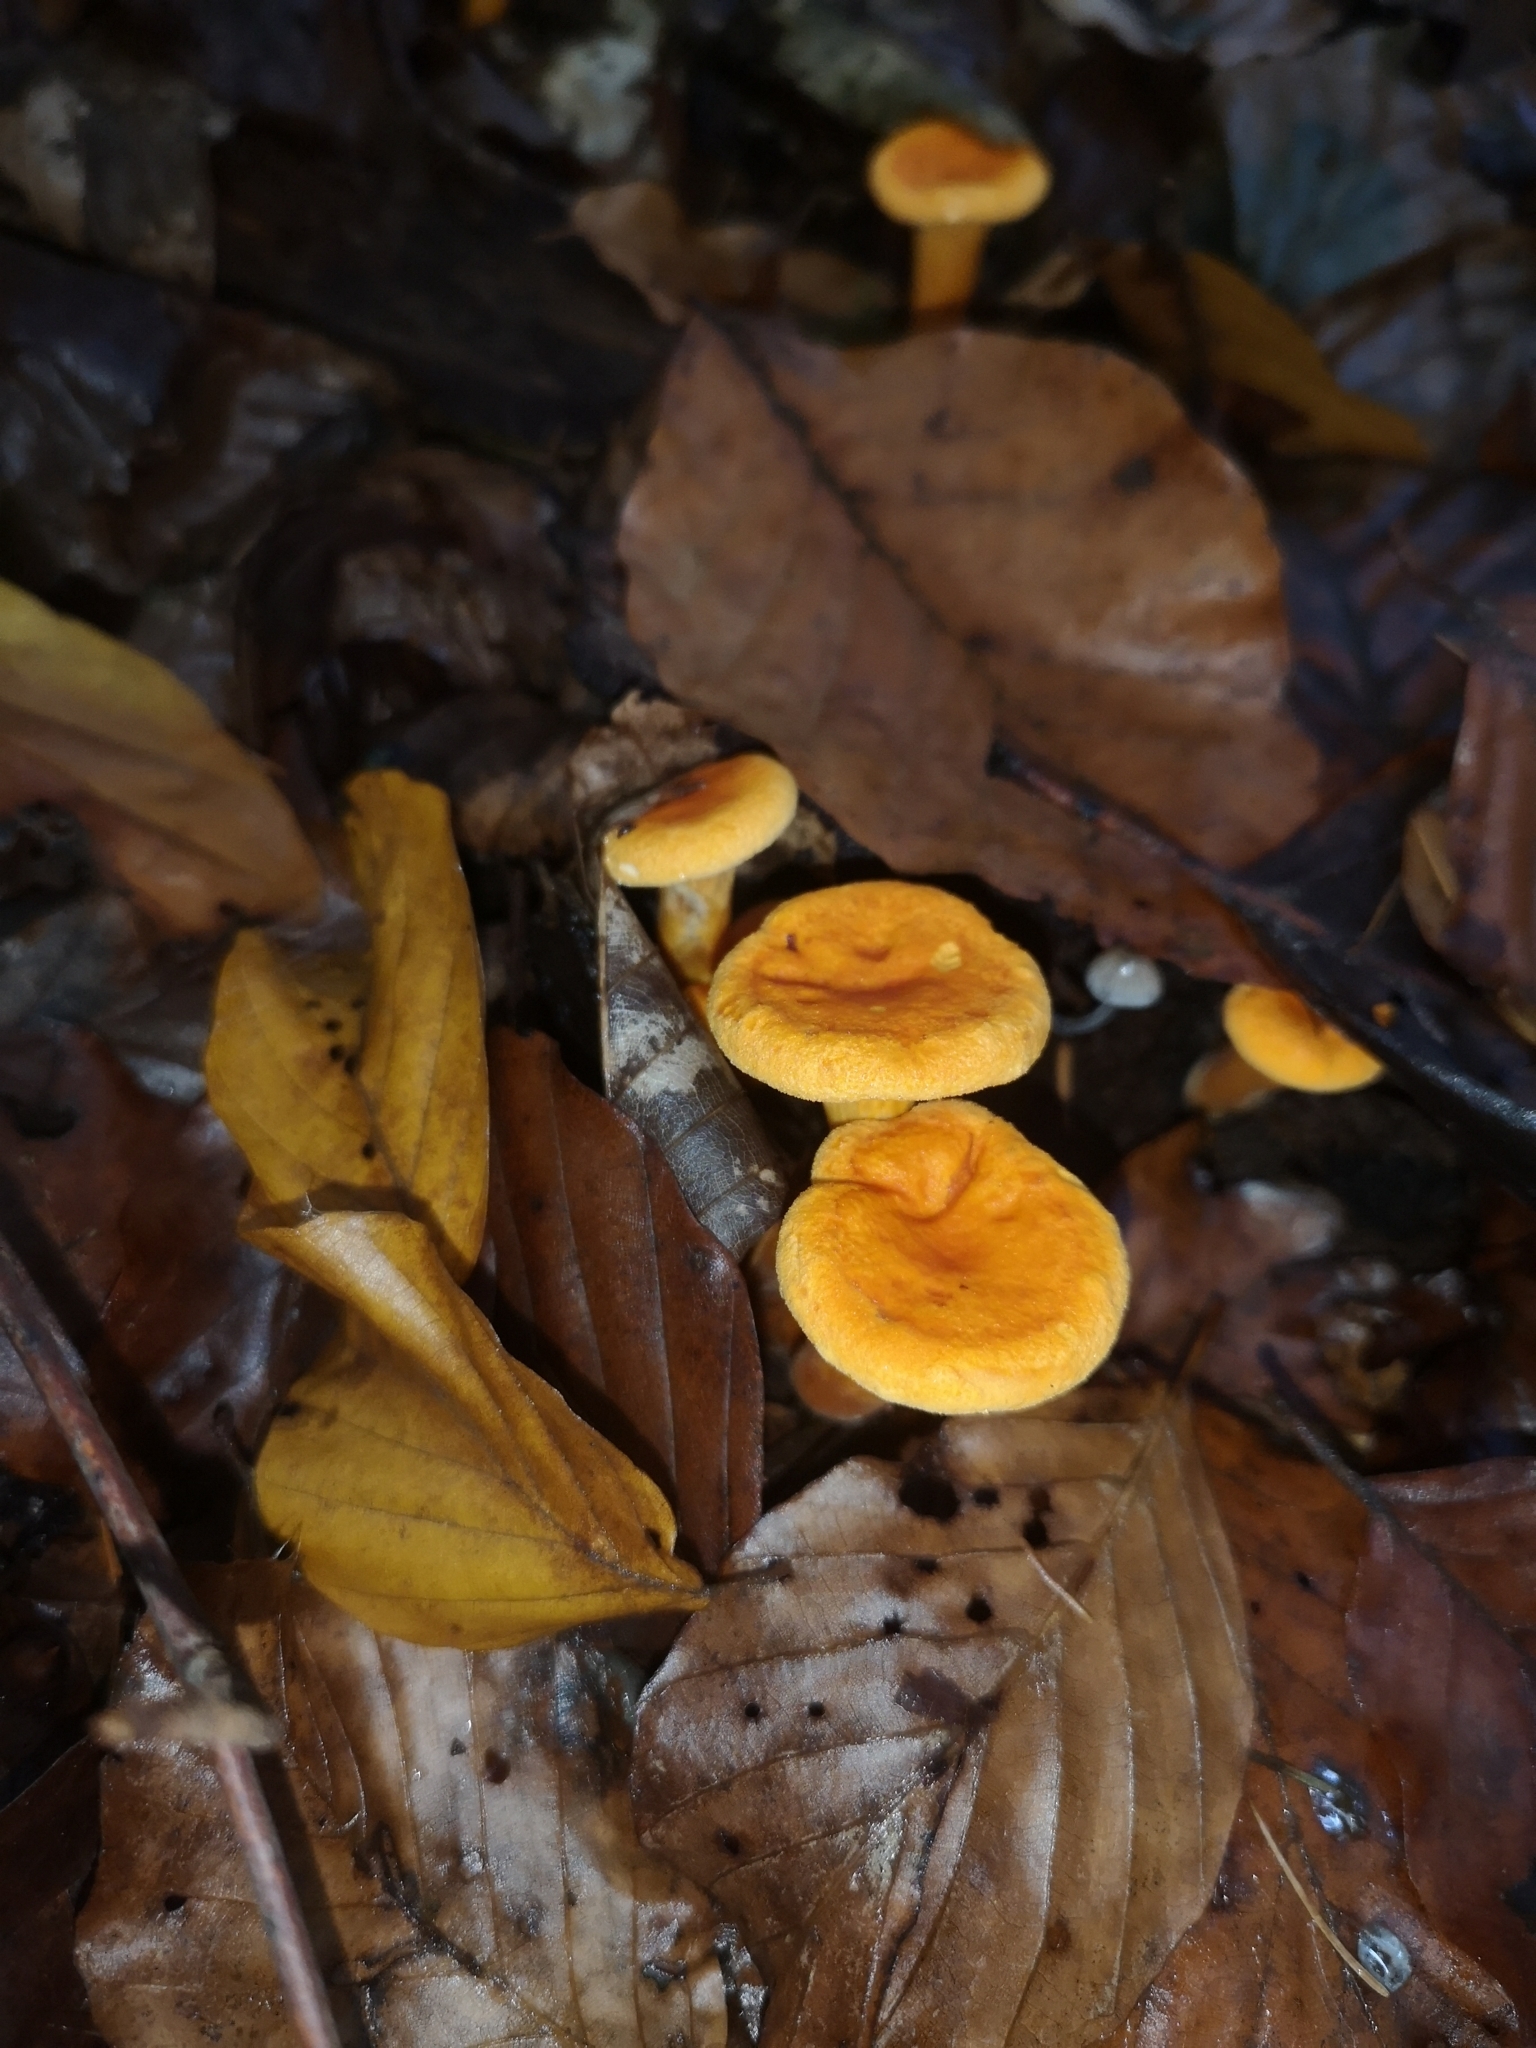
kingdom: Fungi
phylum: Basidiomycota
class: Agaricomycetes
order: Boletales
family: Hygrophoropsidaceae
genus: Hygrophoropsis
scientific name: Hygrophoropsis aurantiaca
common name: False chanterelle
